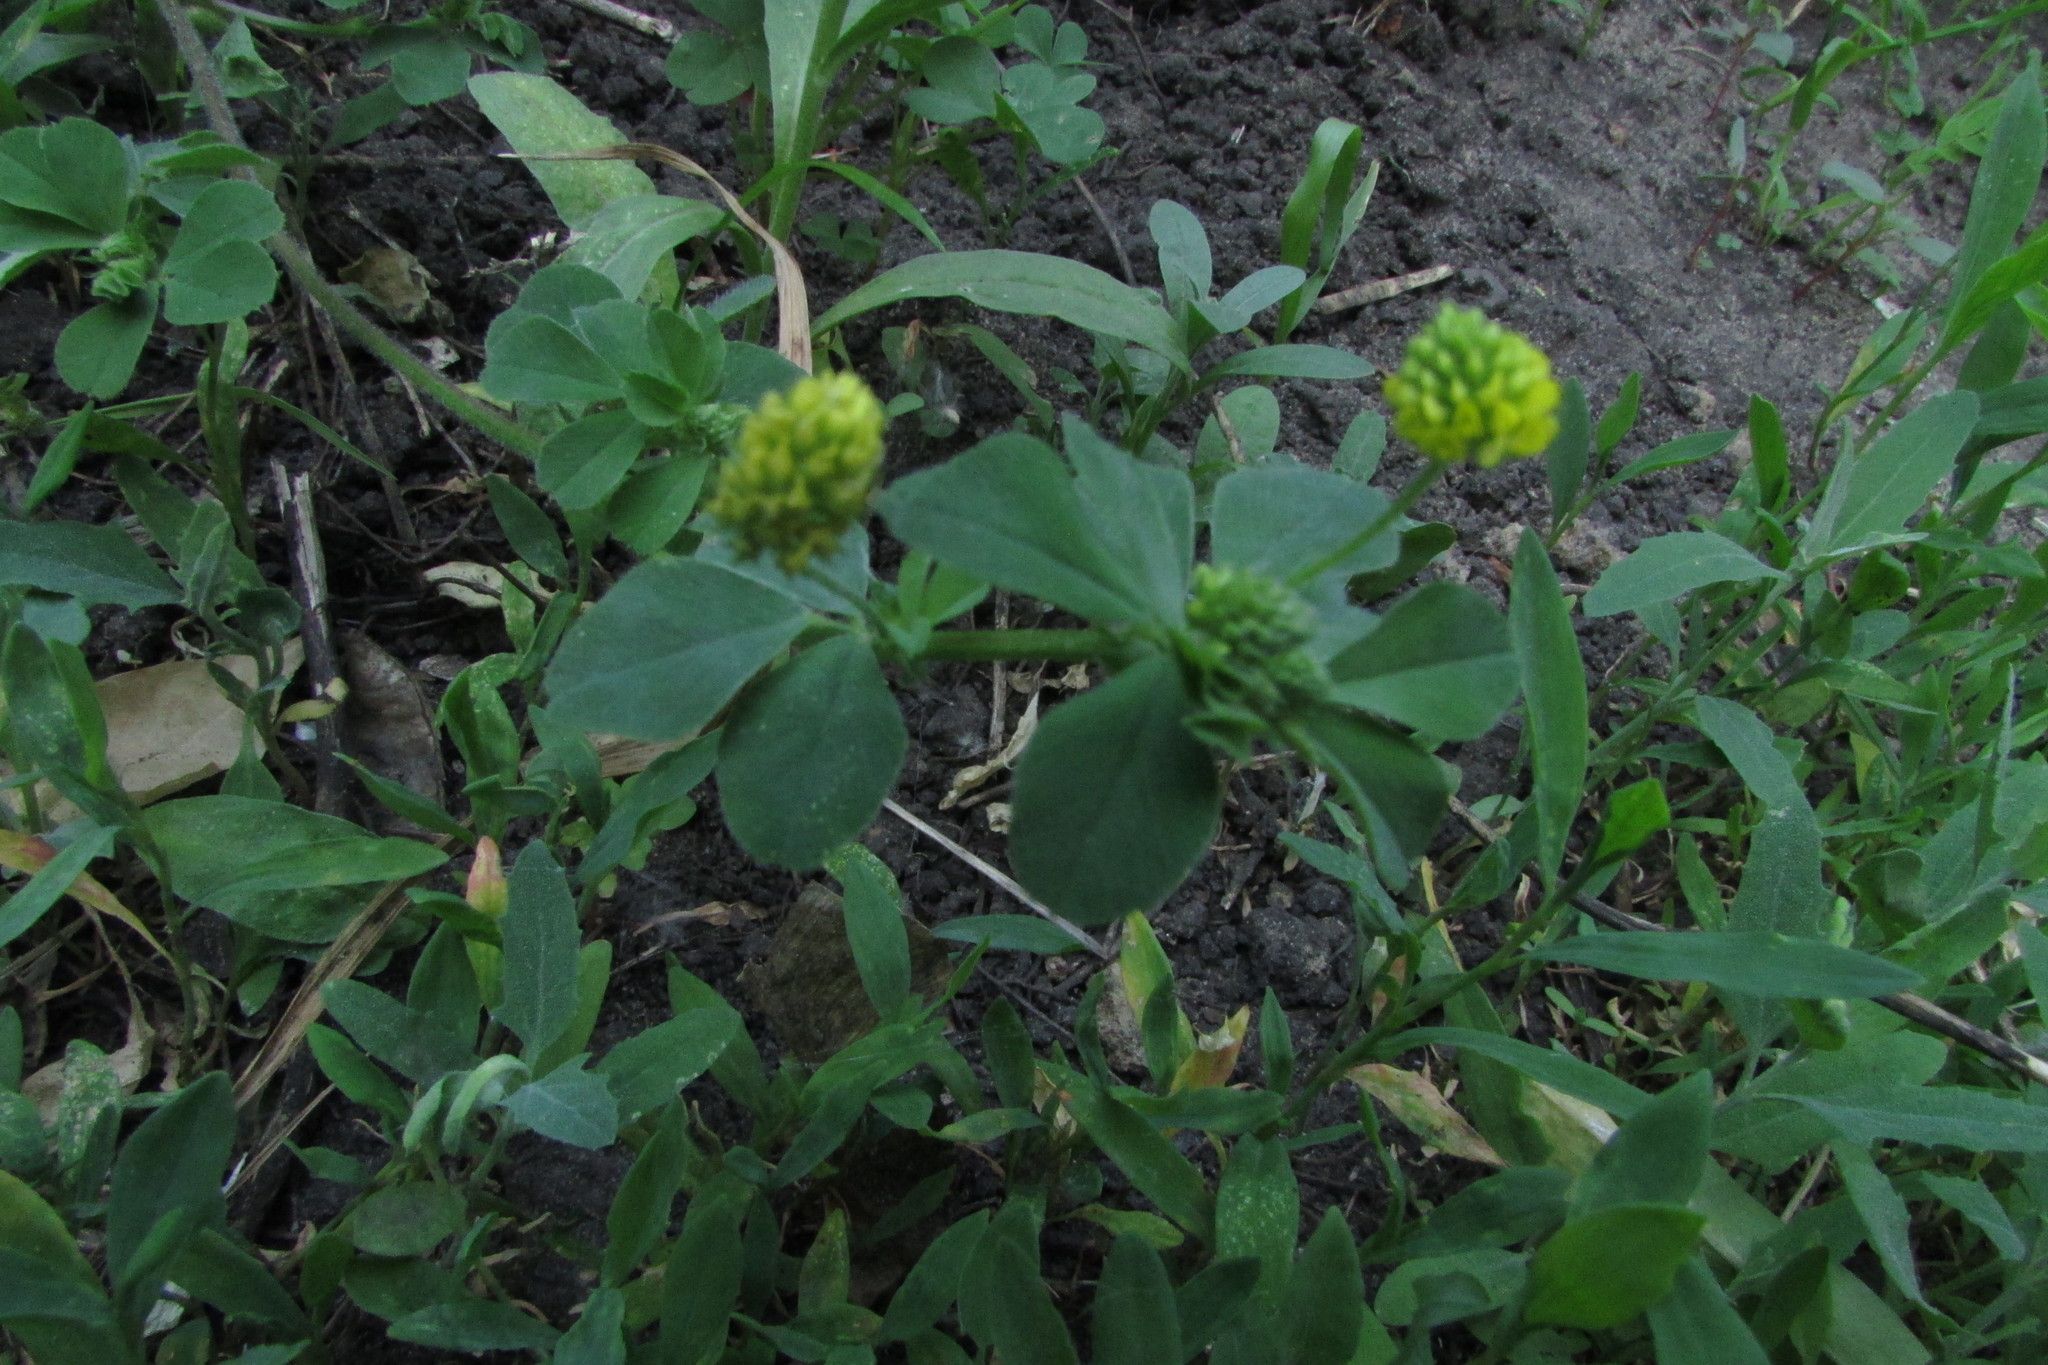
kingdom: Plantae
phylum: Tracheophyta
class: Magnoliopsida
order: Fabales
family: Fabaceae
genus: Medicago
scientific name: Medicago lupulina
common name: Black medick
